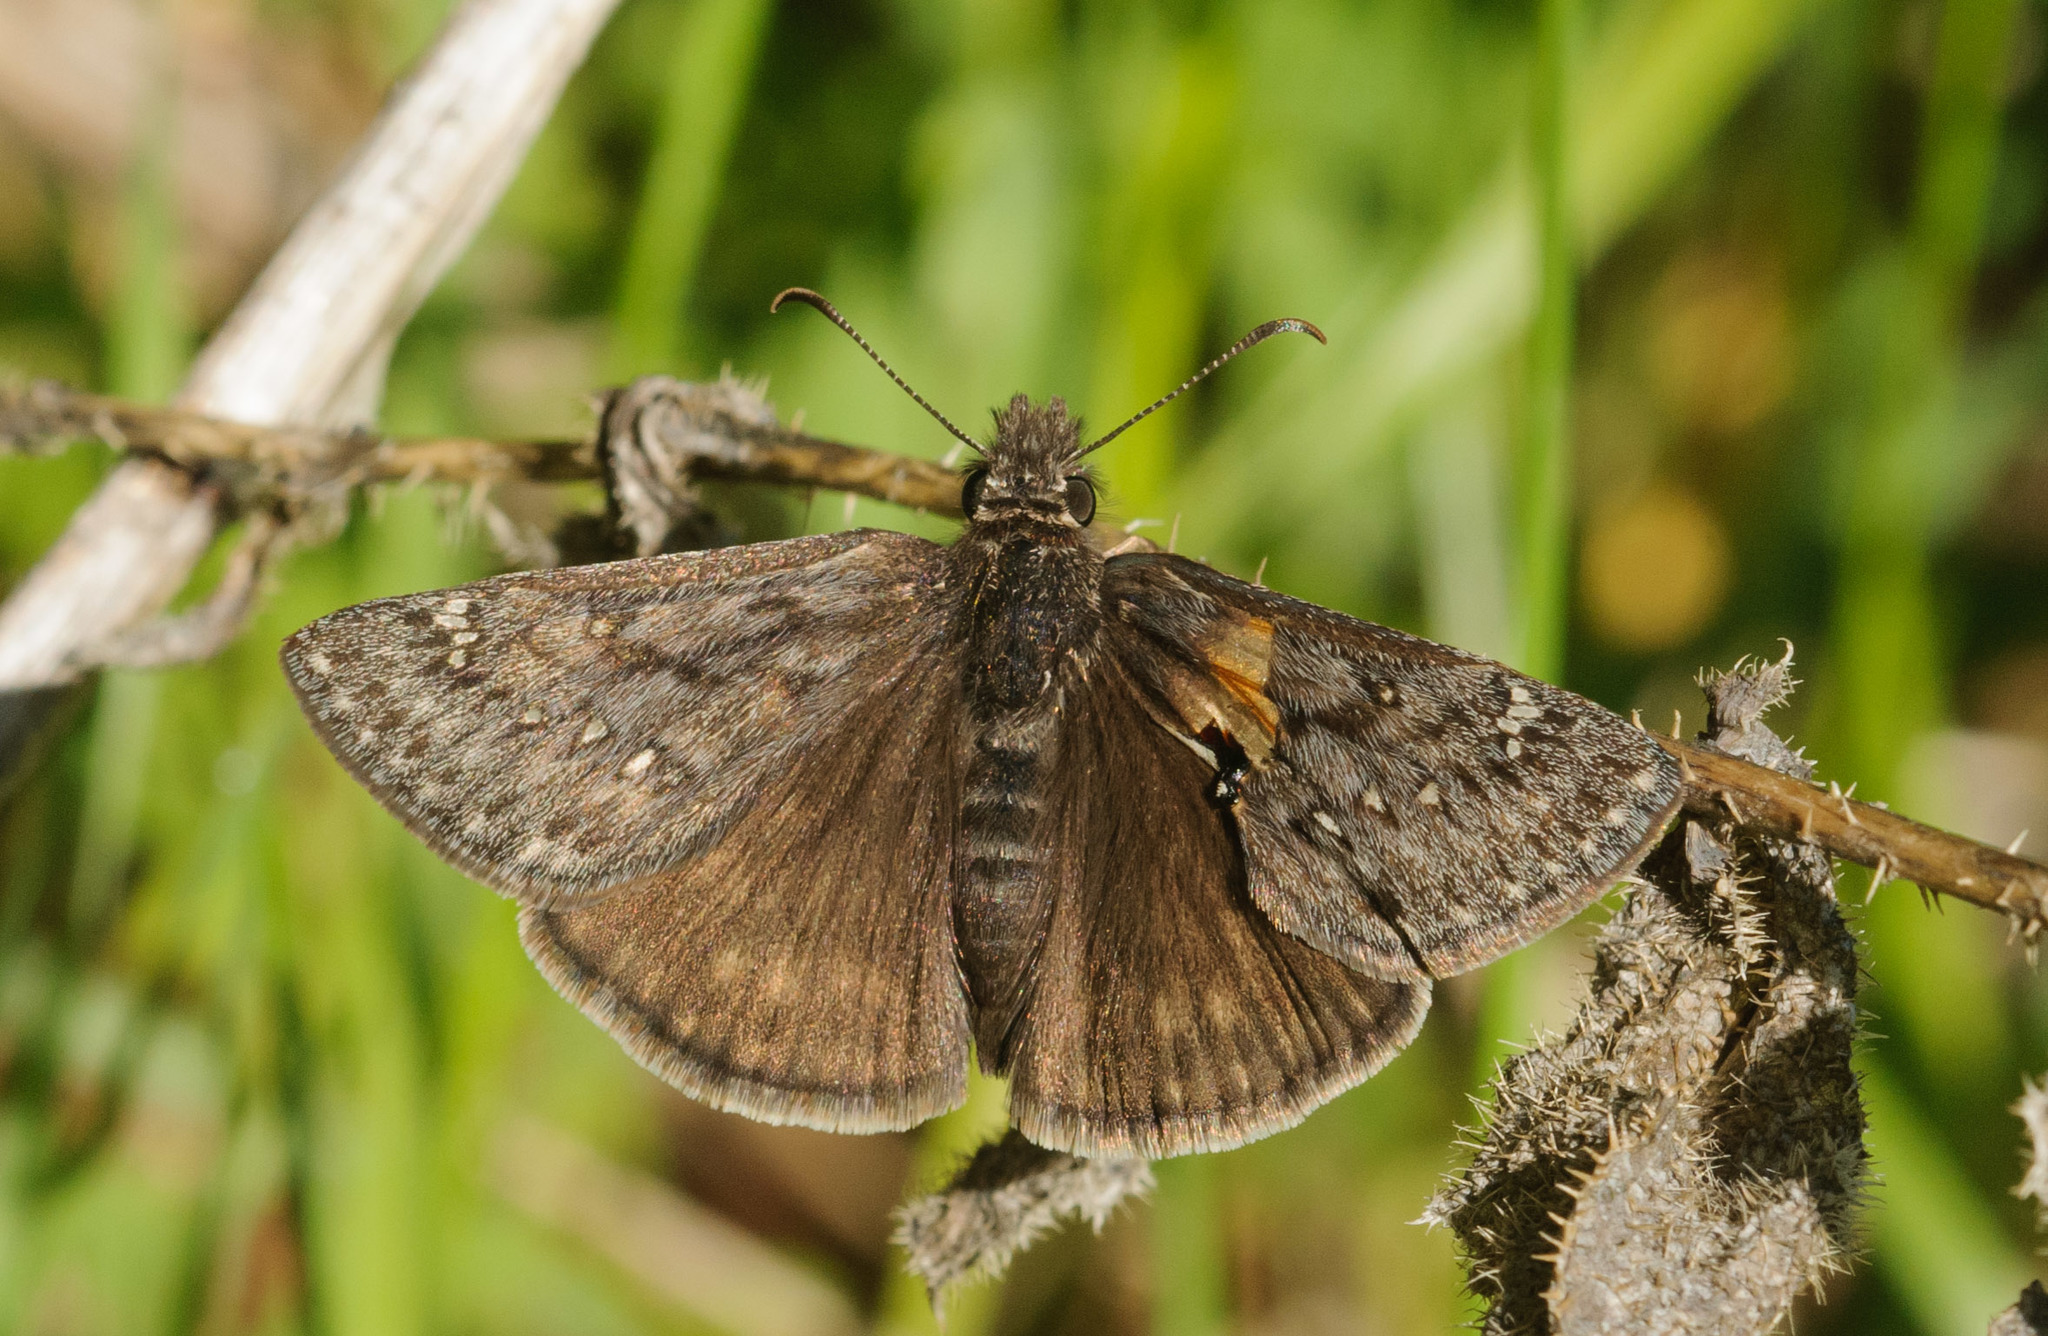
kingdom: Animalia
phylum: Arthropoda
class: Insecta
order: Lepidoptera
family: Hesperiidae
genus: Erynnis
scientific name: Erynnis telemachus
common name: Rocky mountain duskywing
